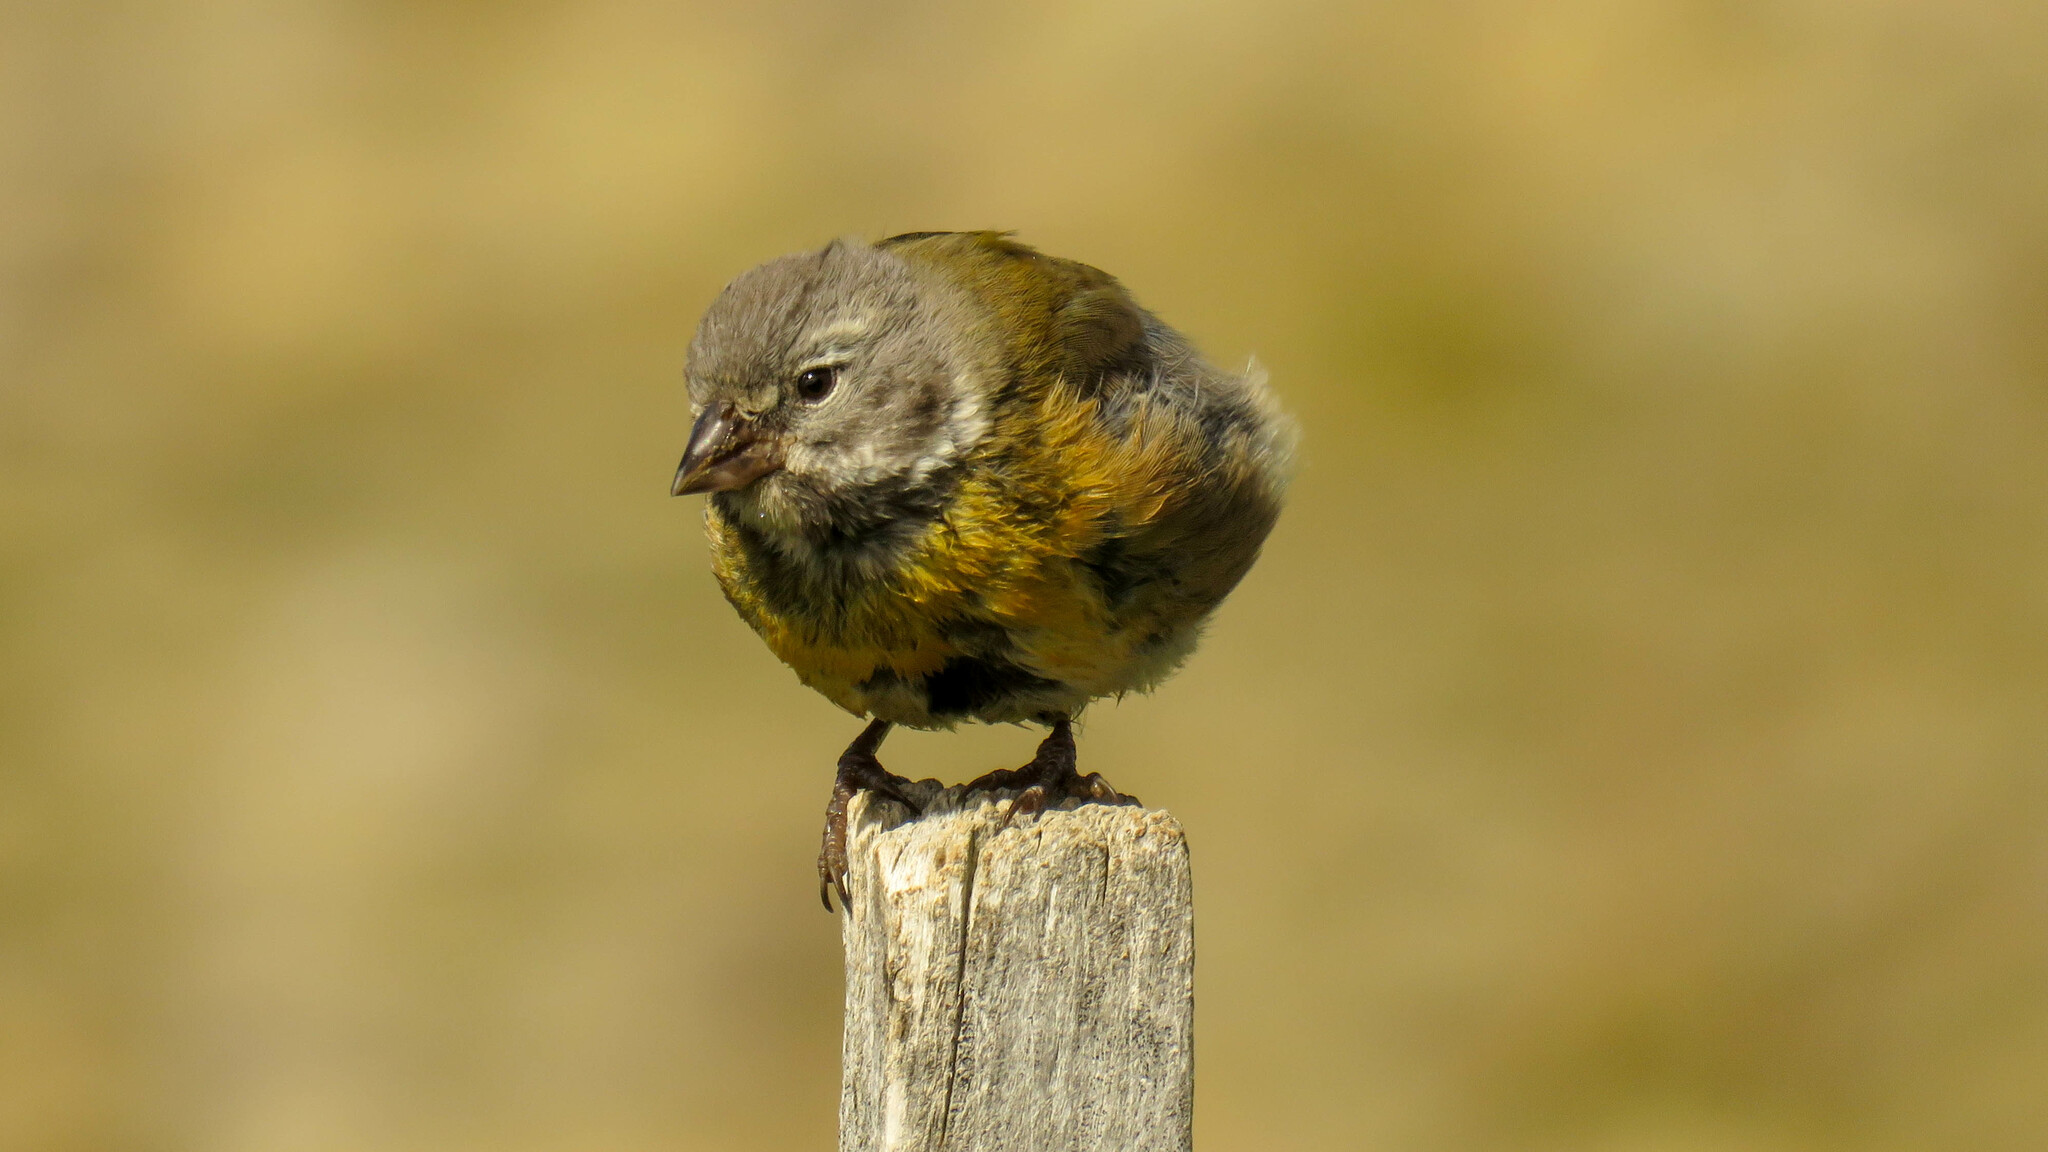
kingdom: Animalia
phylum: Chordata
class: Aves
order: Passeriformes
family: Thraupidae
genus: Phrygilus
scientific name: Phrygilus gayi
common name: Grey-hooded sierra finch
